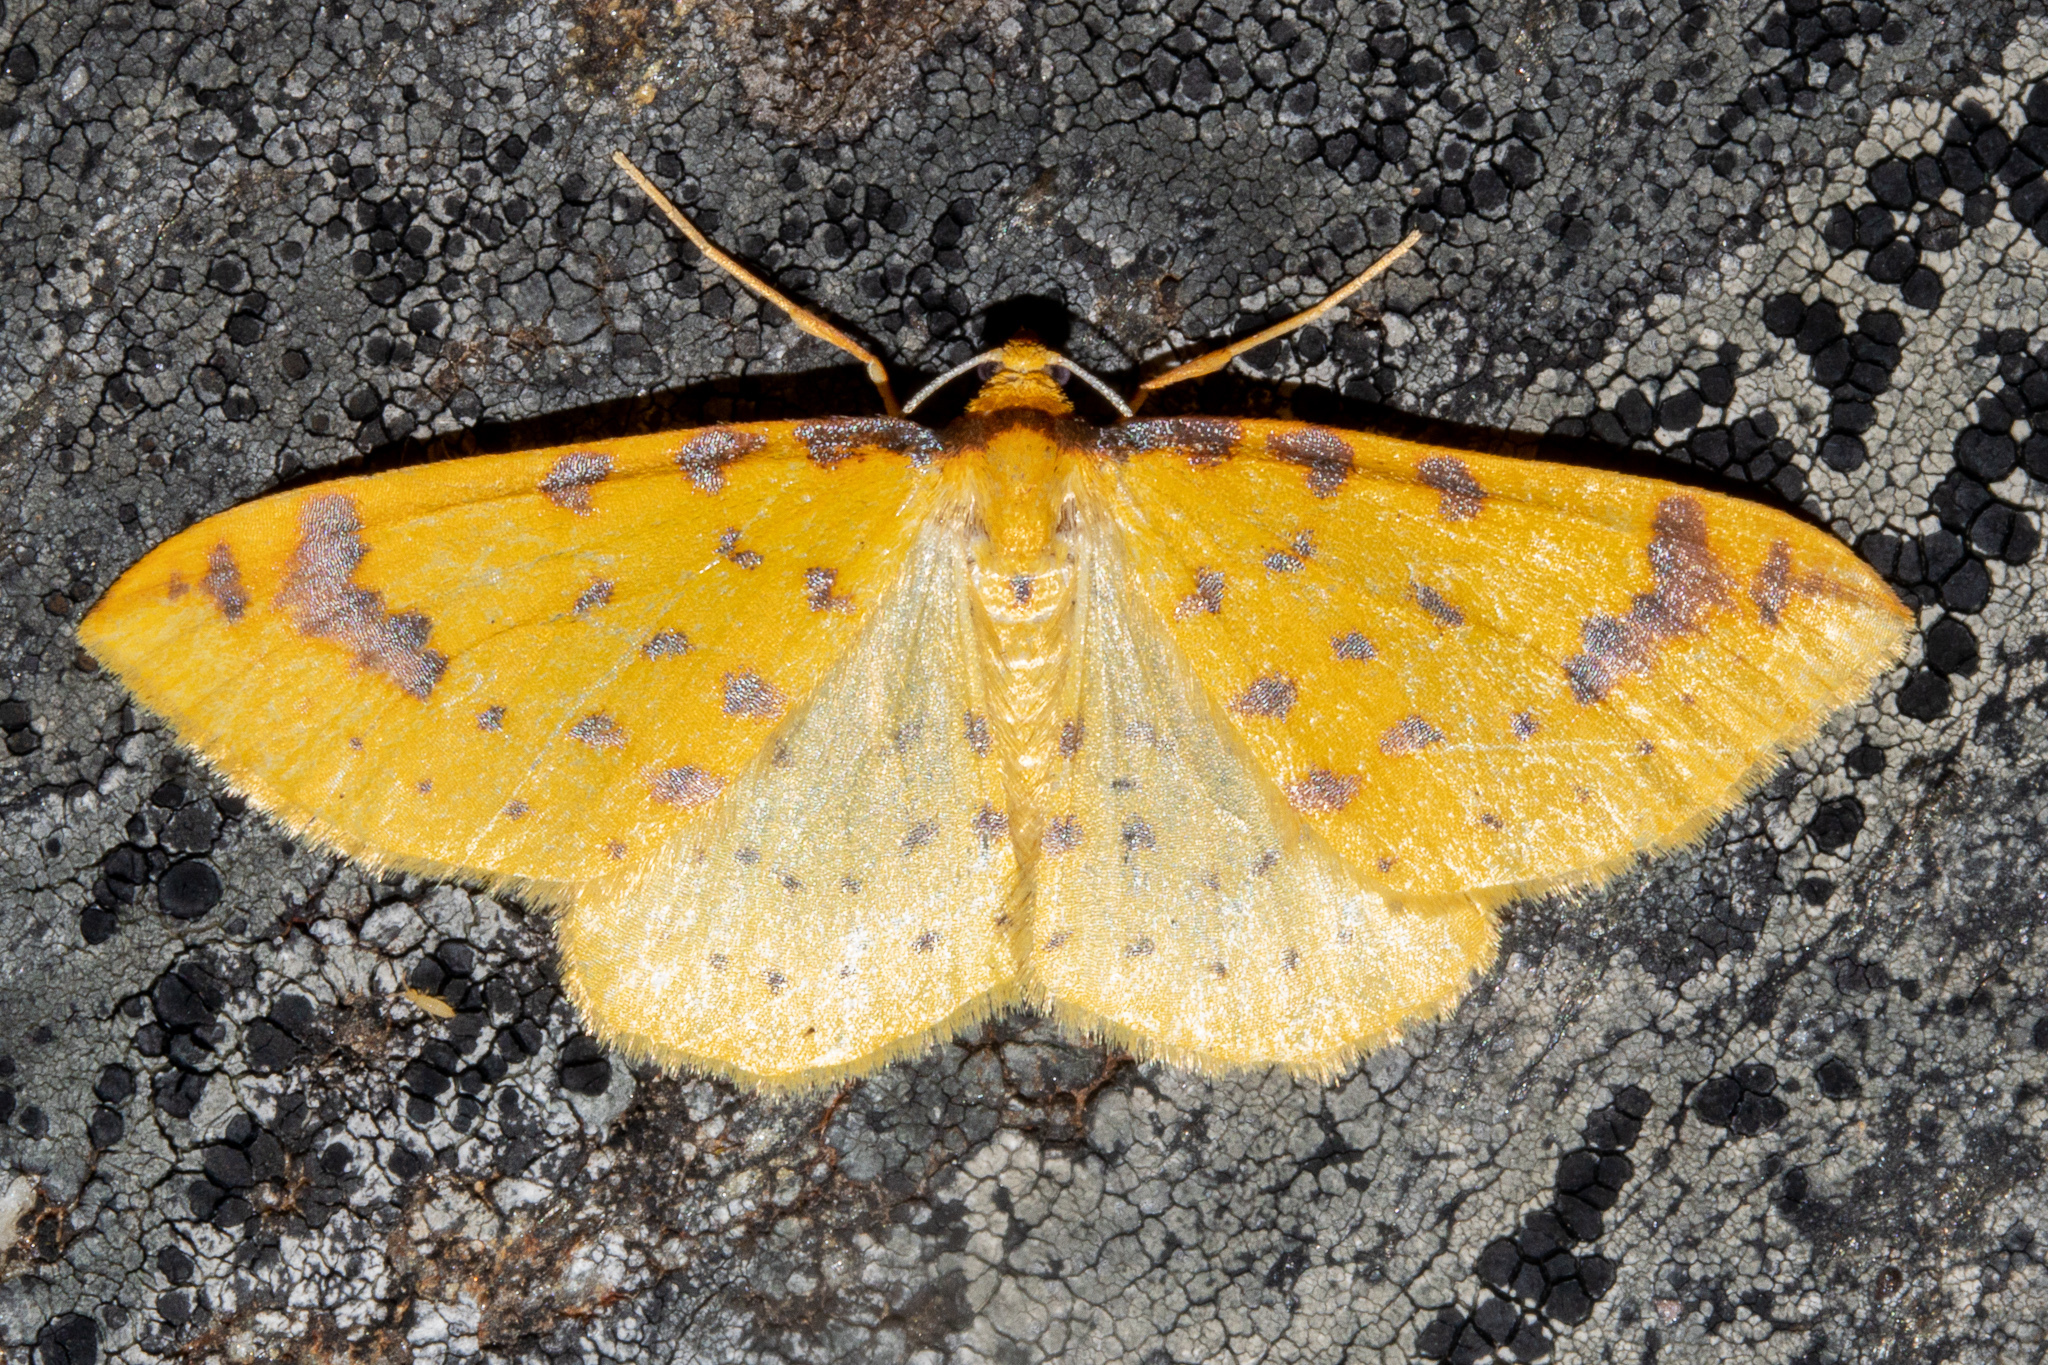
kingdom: Animalia
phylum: Arthropoda
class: Insecta
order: Lepidoptera
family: Geometridae
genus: Orthoclydon
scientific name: Orthoclydon chlorias
